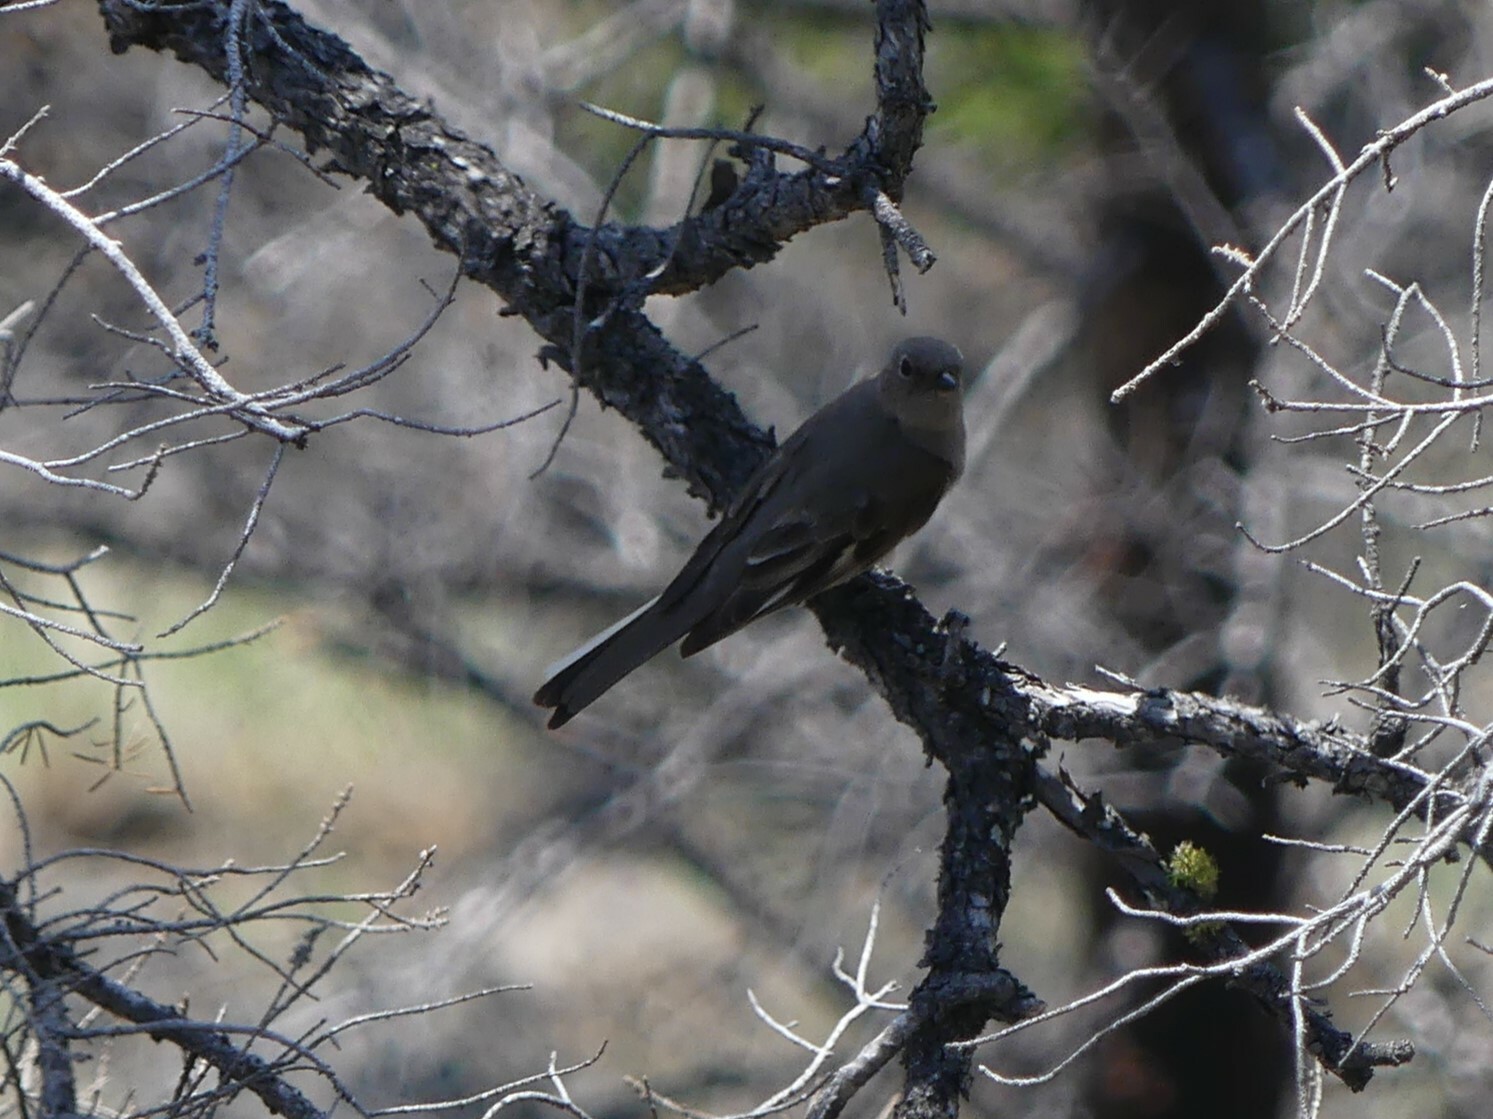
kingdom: Animalia
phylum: Chordata
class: Aves
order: Passeriformes
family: Turdidae
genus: Myadestes
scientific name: Myadestes townsendi
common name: Townsend's solitaire
